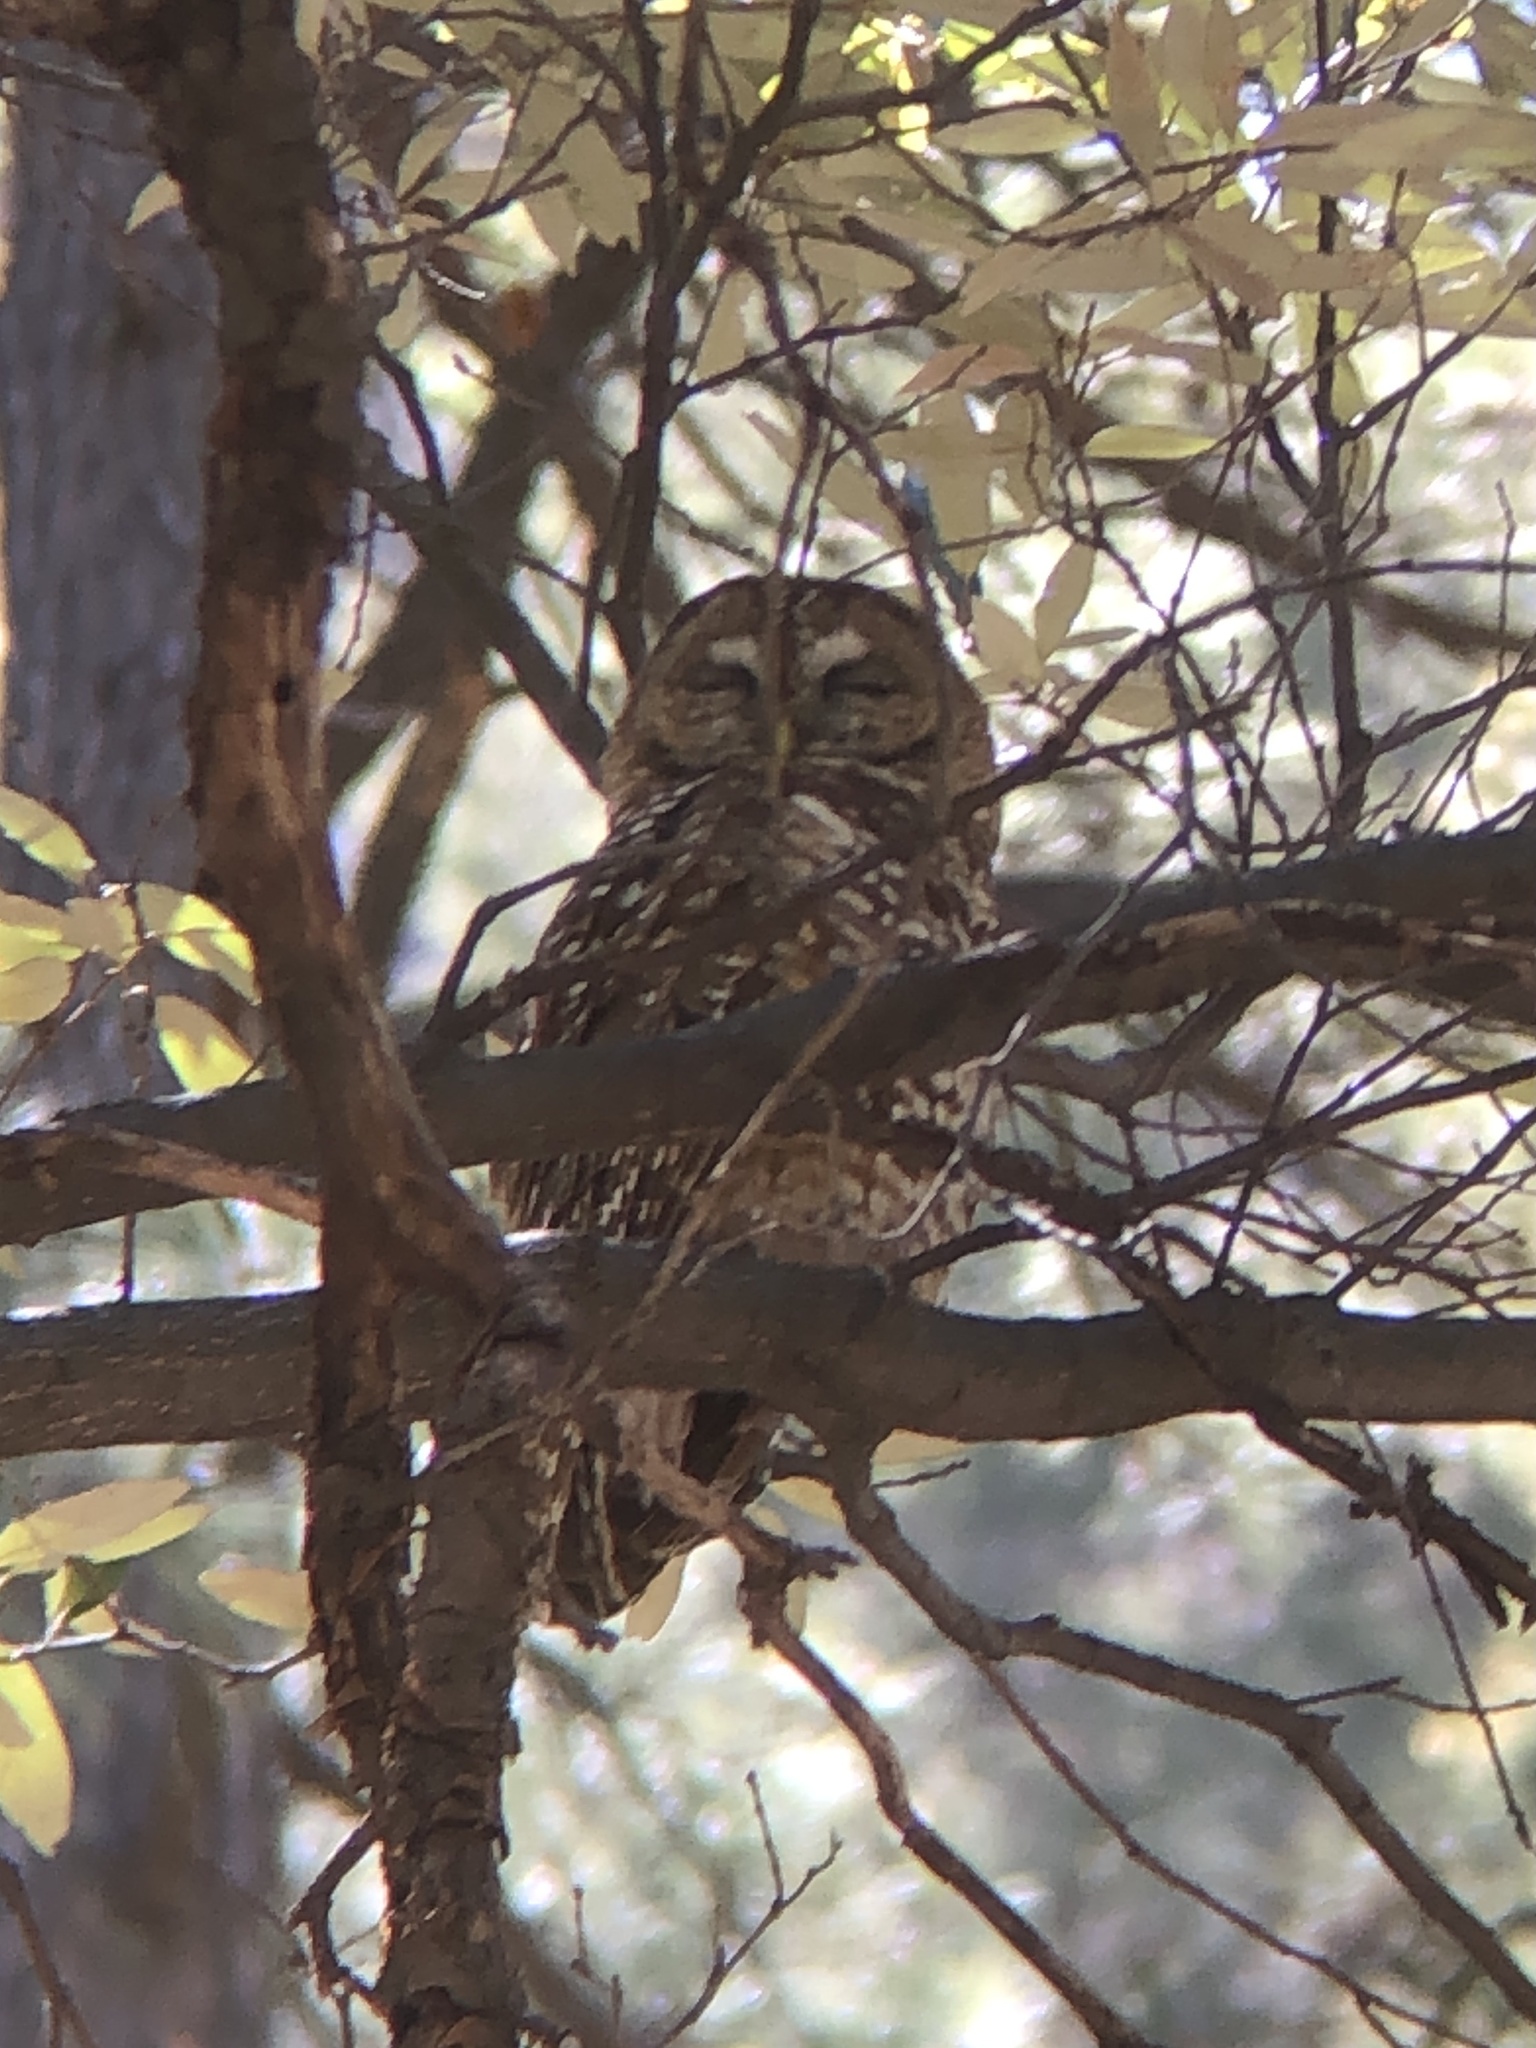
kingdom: Animalia
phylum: Chordata
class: Aves
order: Strigiformes
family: Strigidae
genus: Strix
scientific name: Strix occidentalis
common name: Spotted owl
